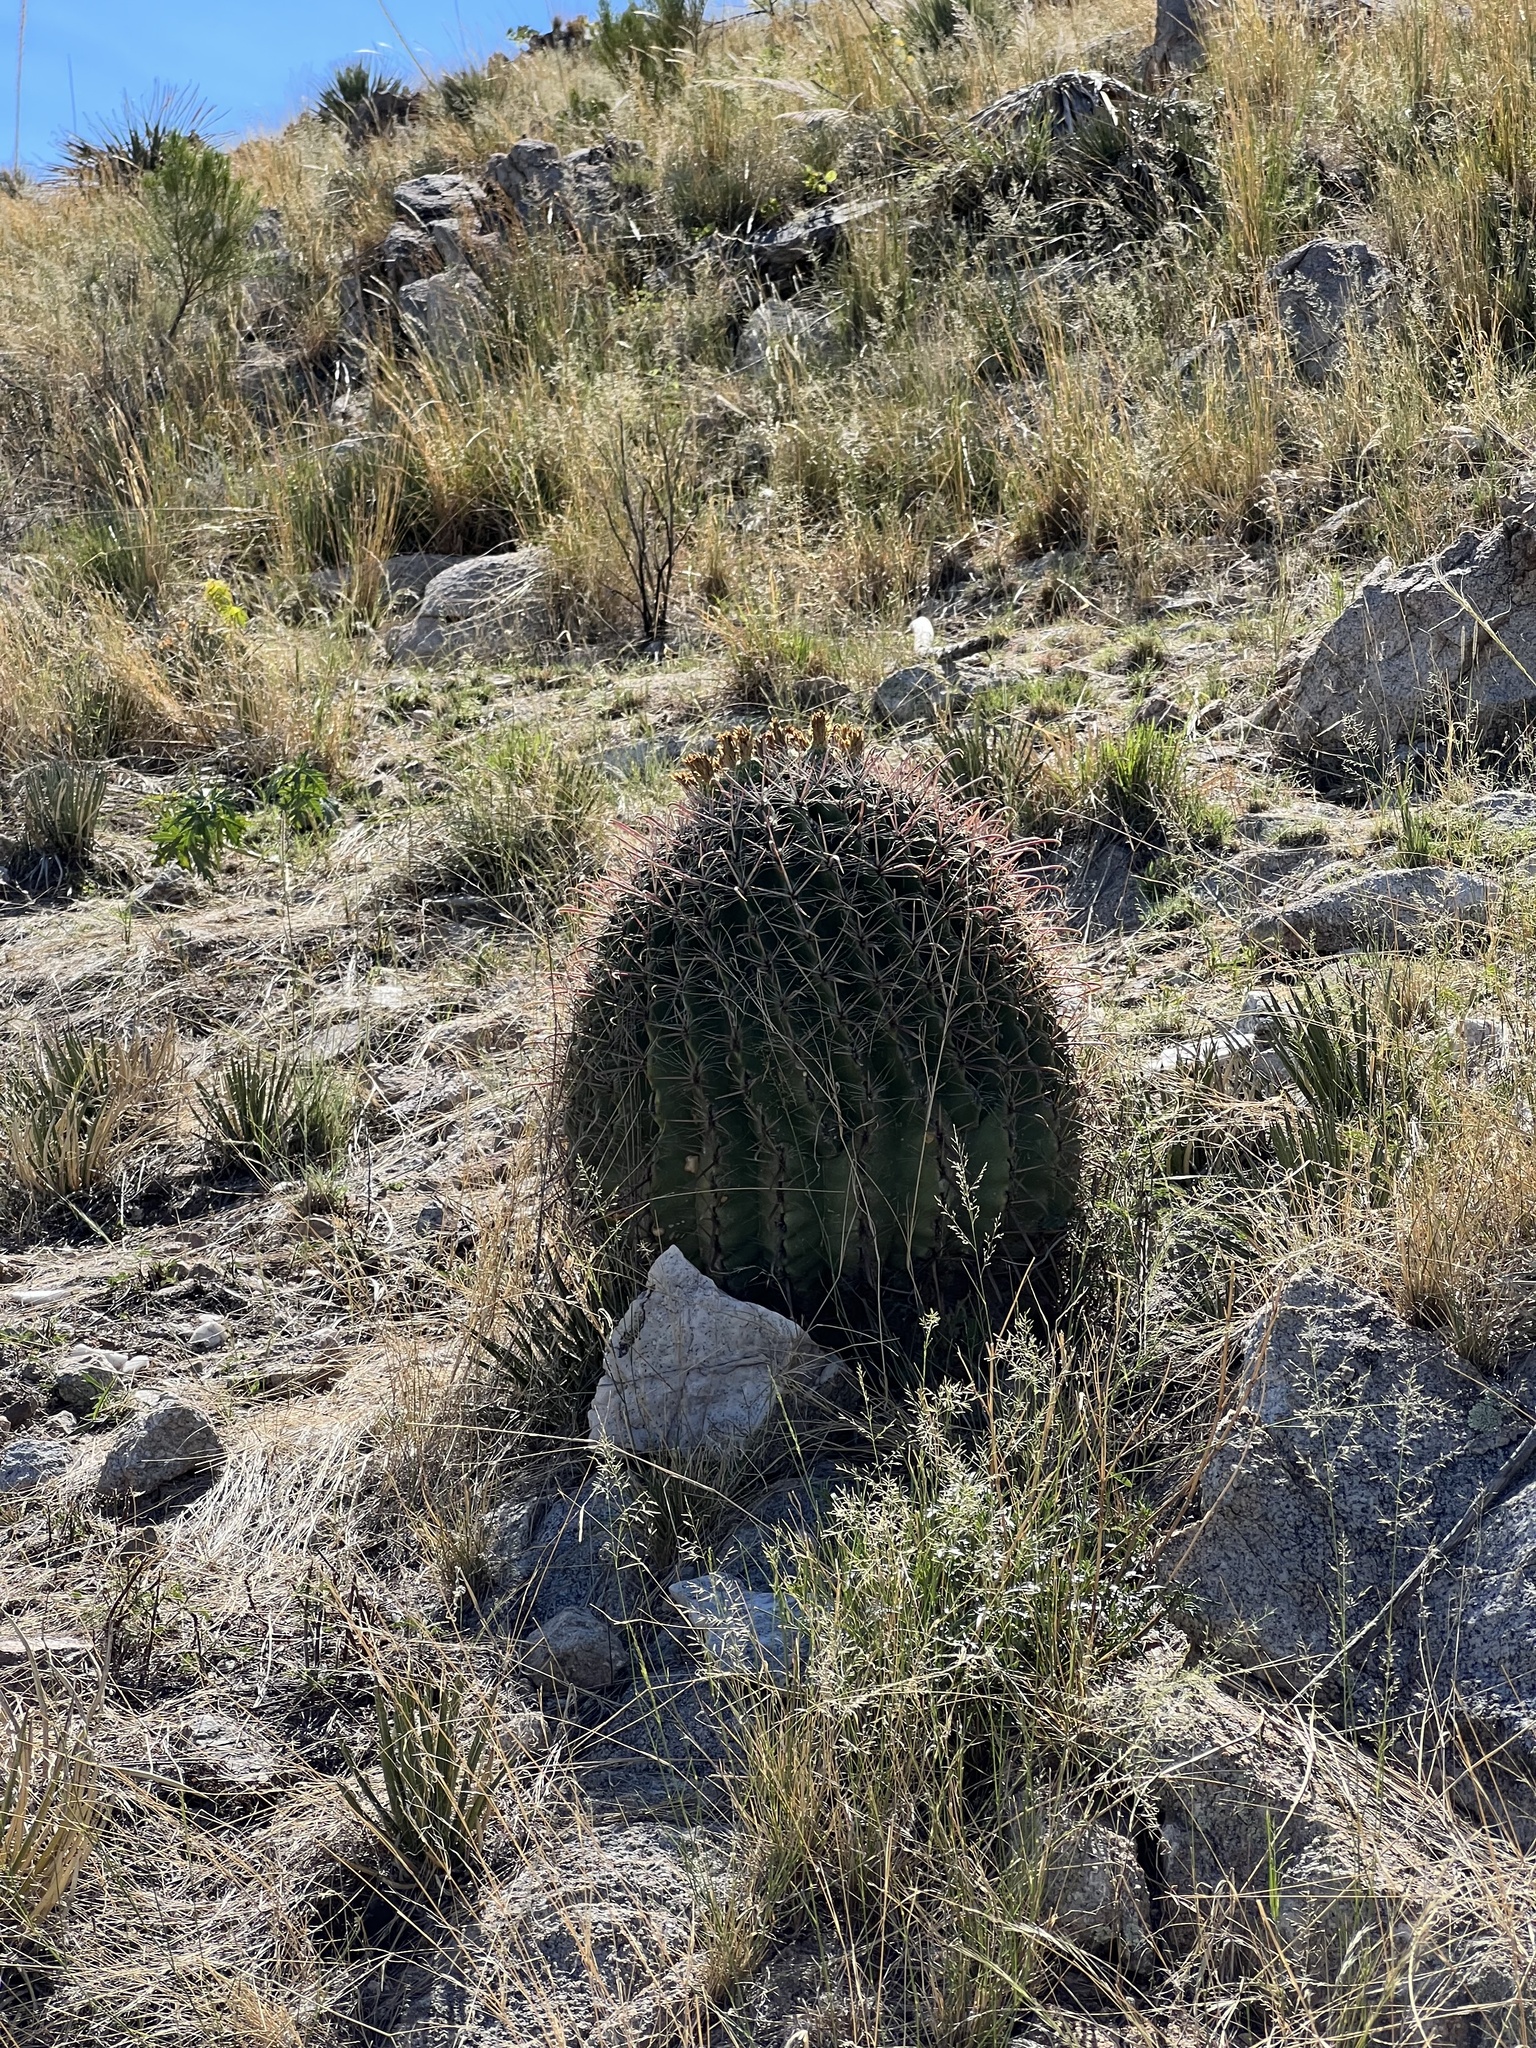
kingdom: Plantae
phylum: Tracheophyta
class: Magnoliopsida
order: Caryophyllales
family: Cactaceae
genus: Ferocactus
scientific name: Ferocactus wislizeni
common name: Candy barrel cactus
